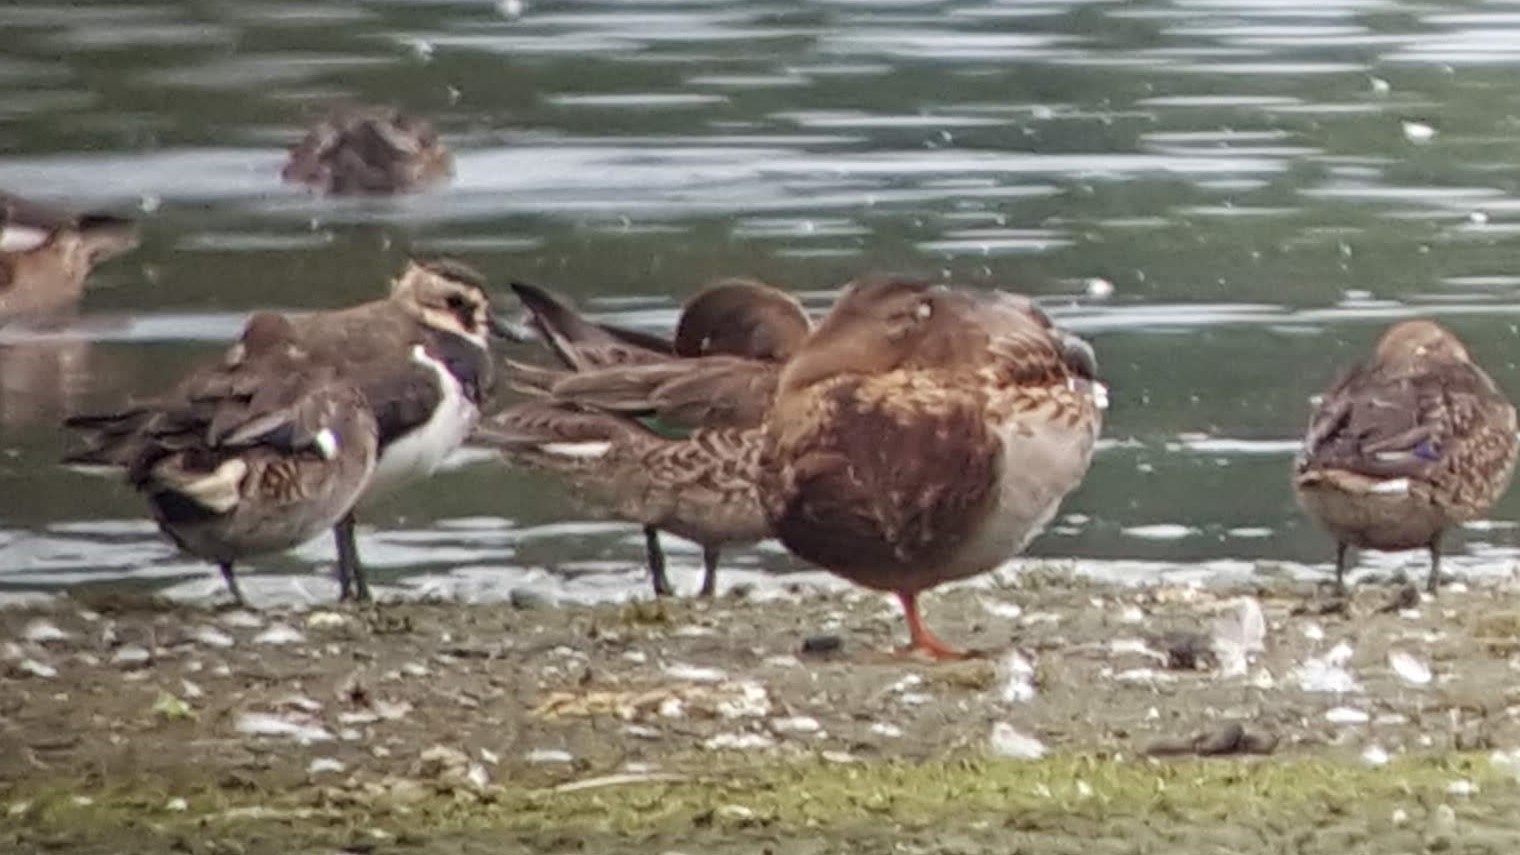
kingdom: Animalia
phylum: Chordata
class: Aves
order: Anseriformes
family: Anatidae
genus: Anas
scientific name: Anas crecca
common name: Eurasian teal
